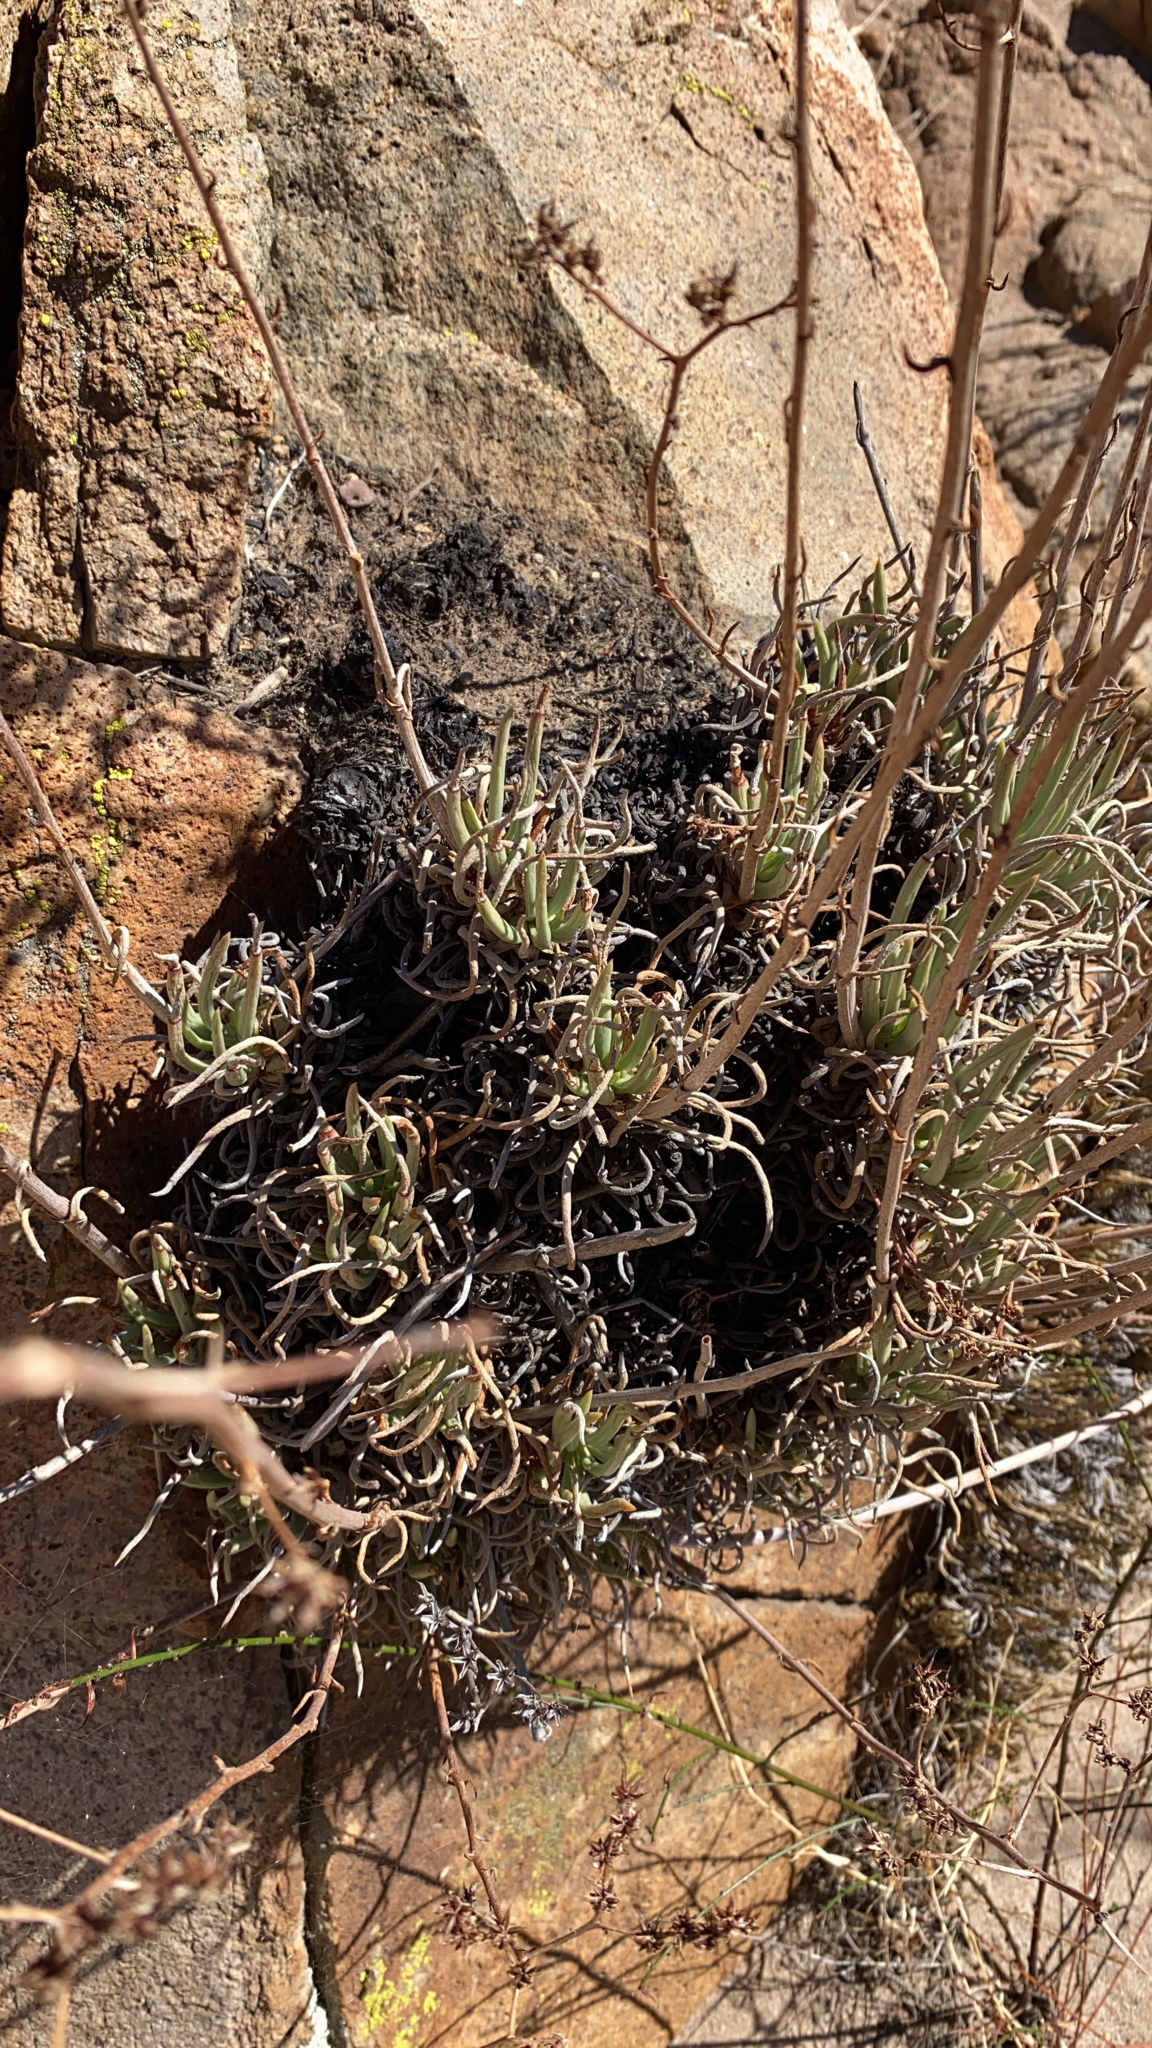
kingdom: Plantae
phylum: Tracheophyta
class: Magnoliopsida
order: Saxifragales
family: Crassulaceae
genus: Dudleya
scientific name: Dudleya edulis
